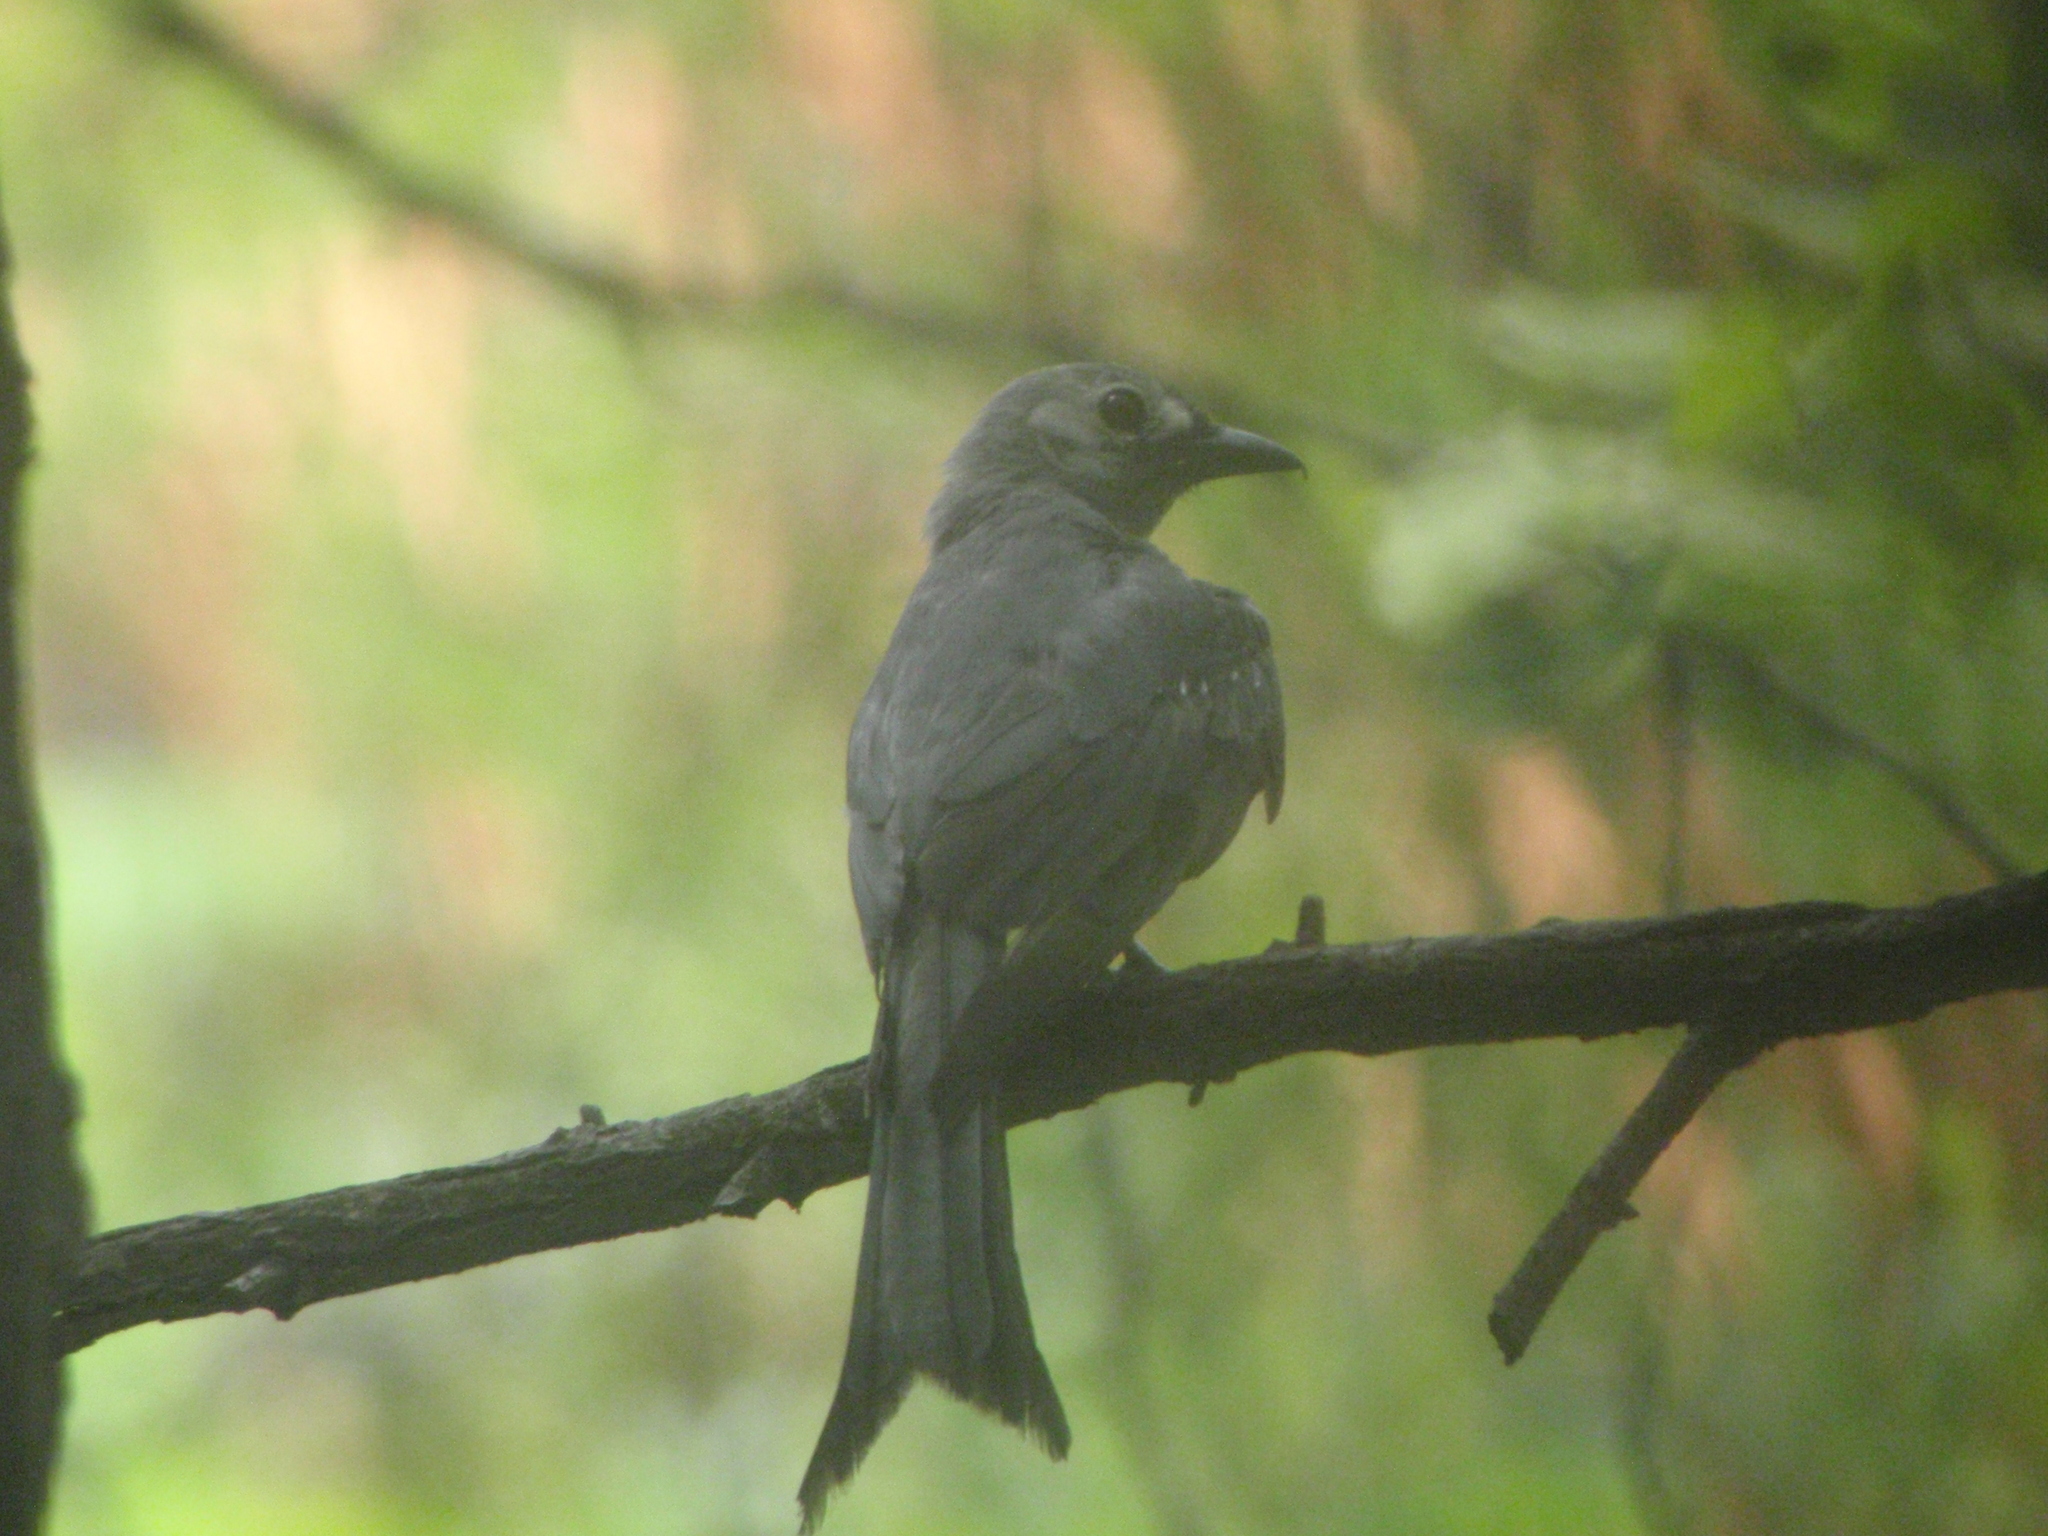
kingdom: Animalia
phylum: Chordata
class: Aves
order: Passeriformes
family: Dicruridae
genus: Dicrurus
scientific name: Dicrurus leucophaeus
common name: Ashy drongo
